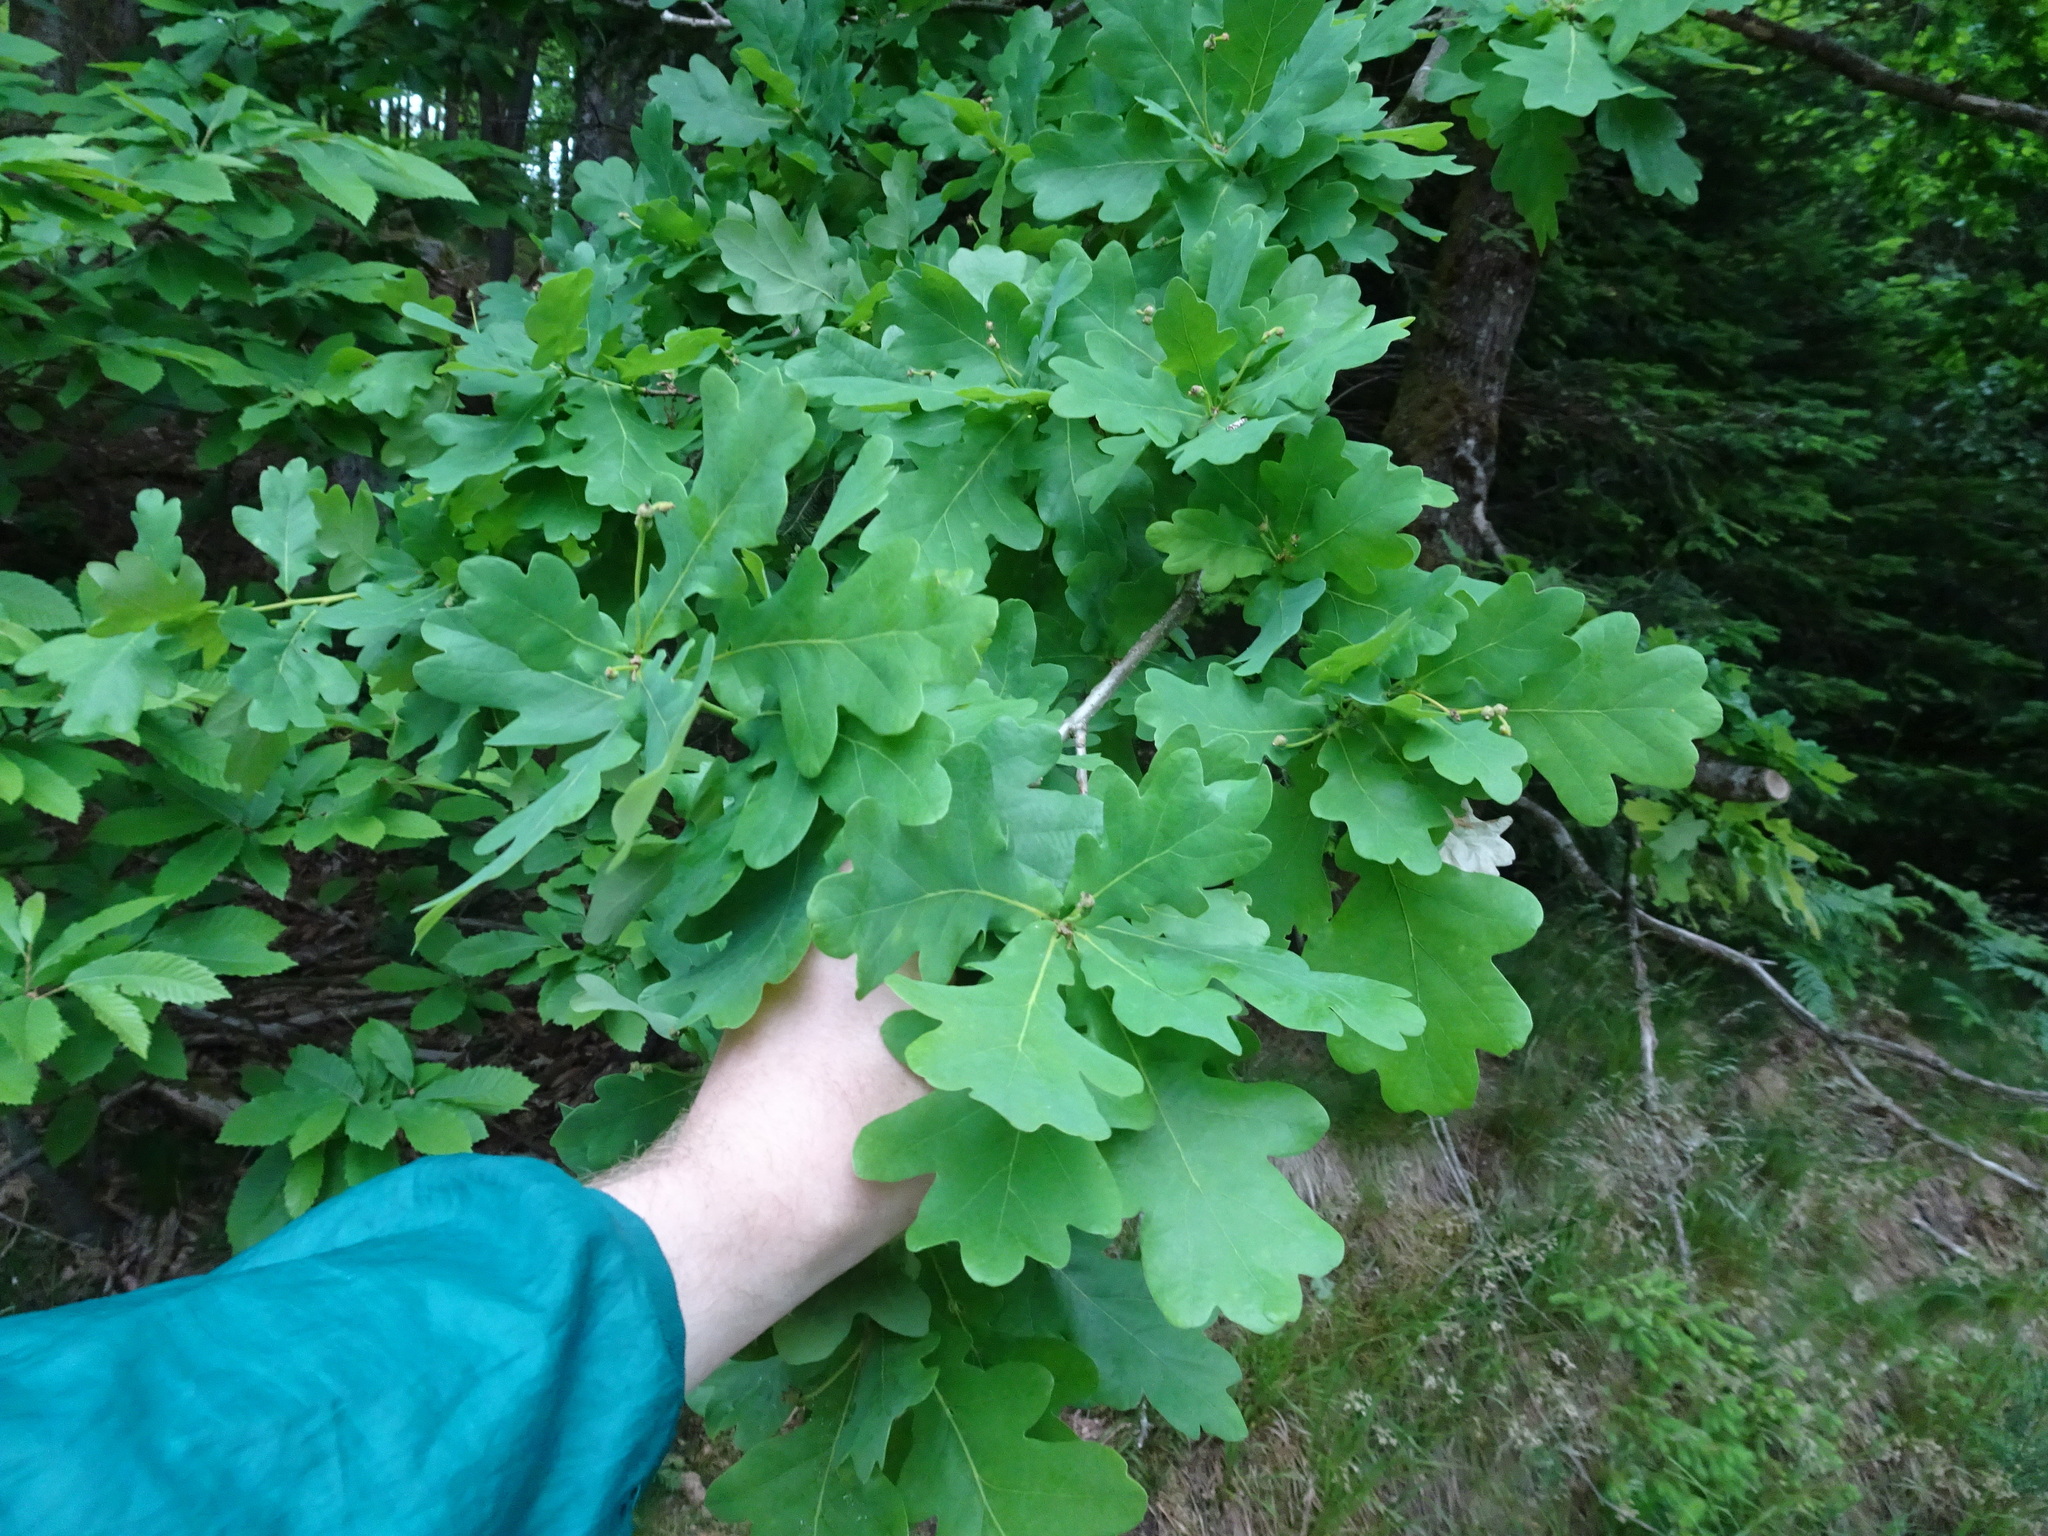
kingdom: Plantae
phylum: Tracheophyta
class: Magnoliopsida
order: Fagales
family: Fagaceae
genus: Quercus
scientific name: Quercus robur
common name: Pedunculate oak
